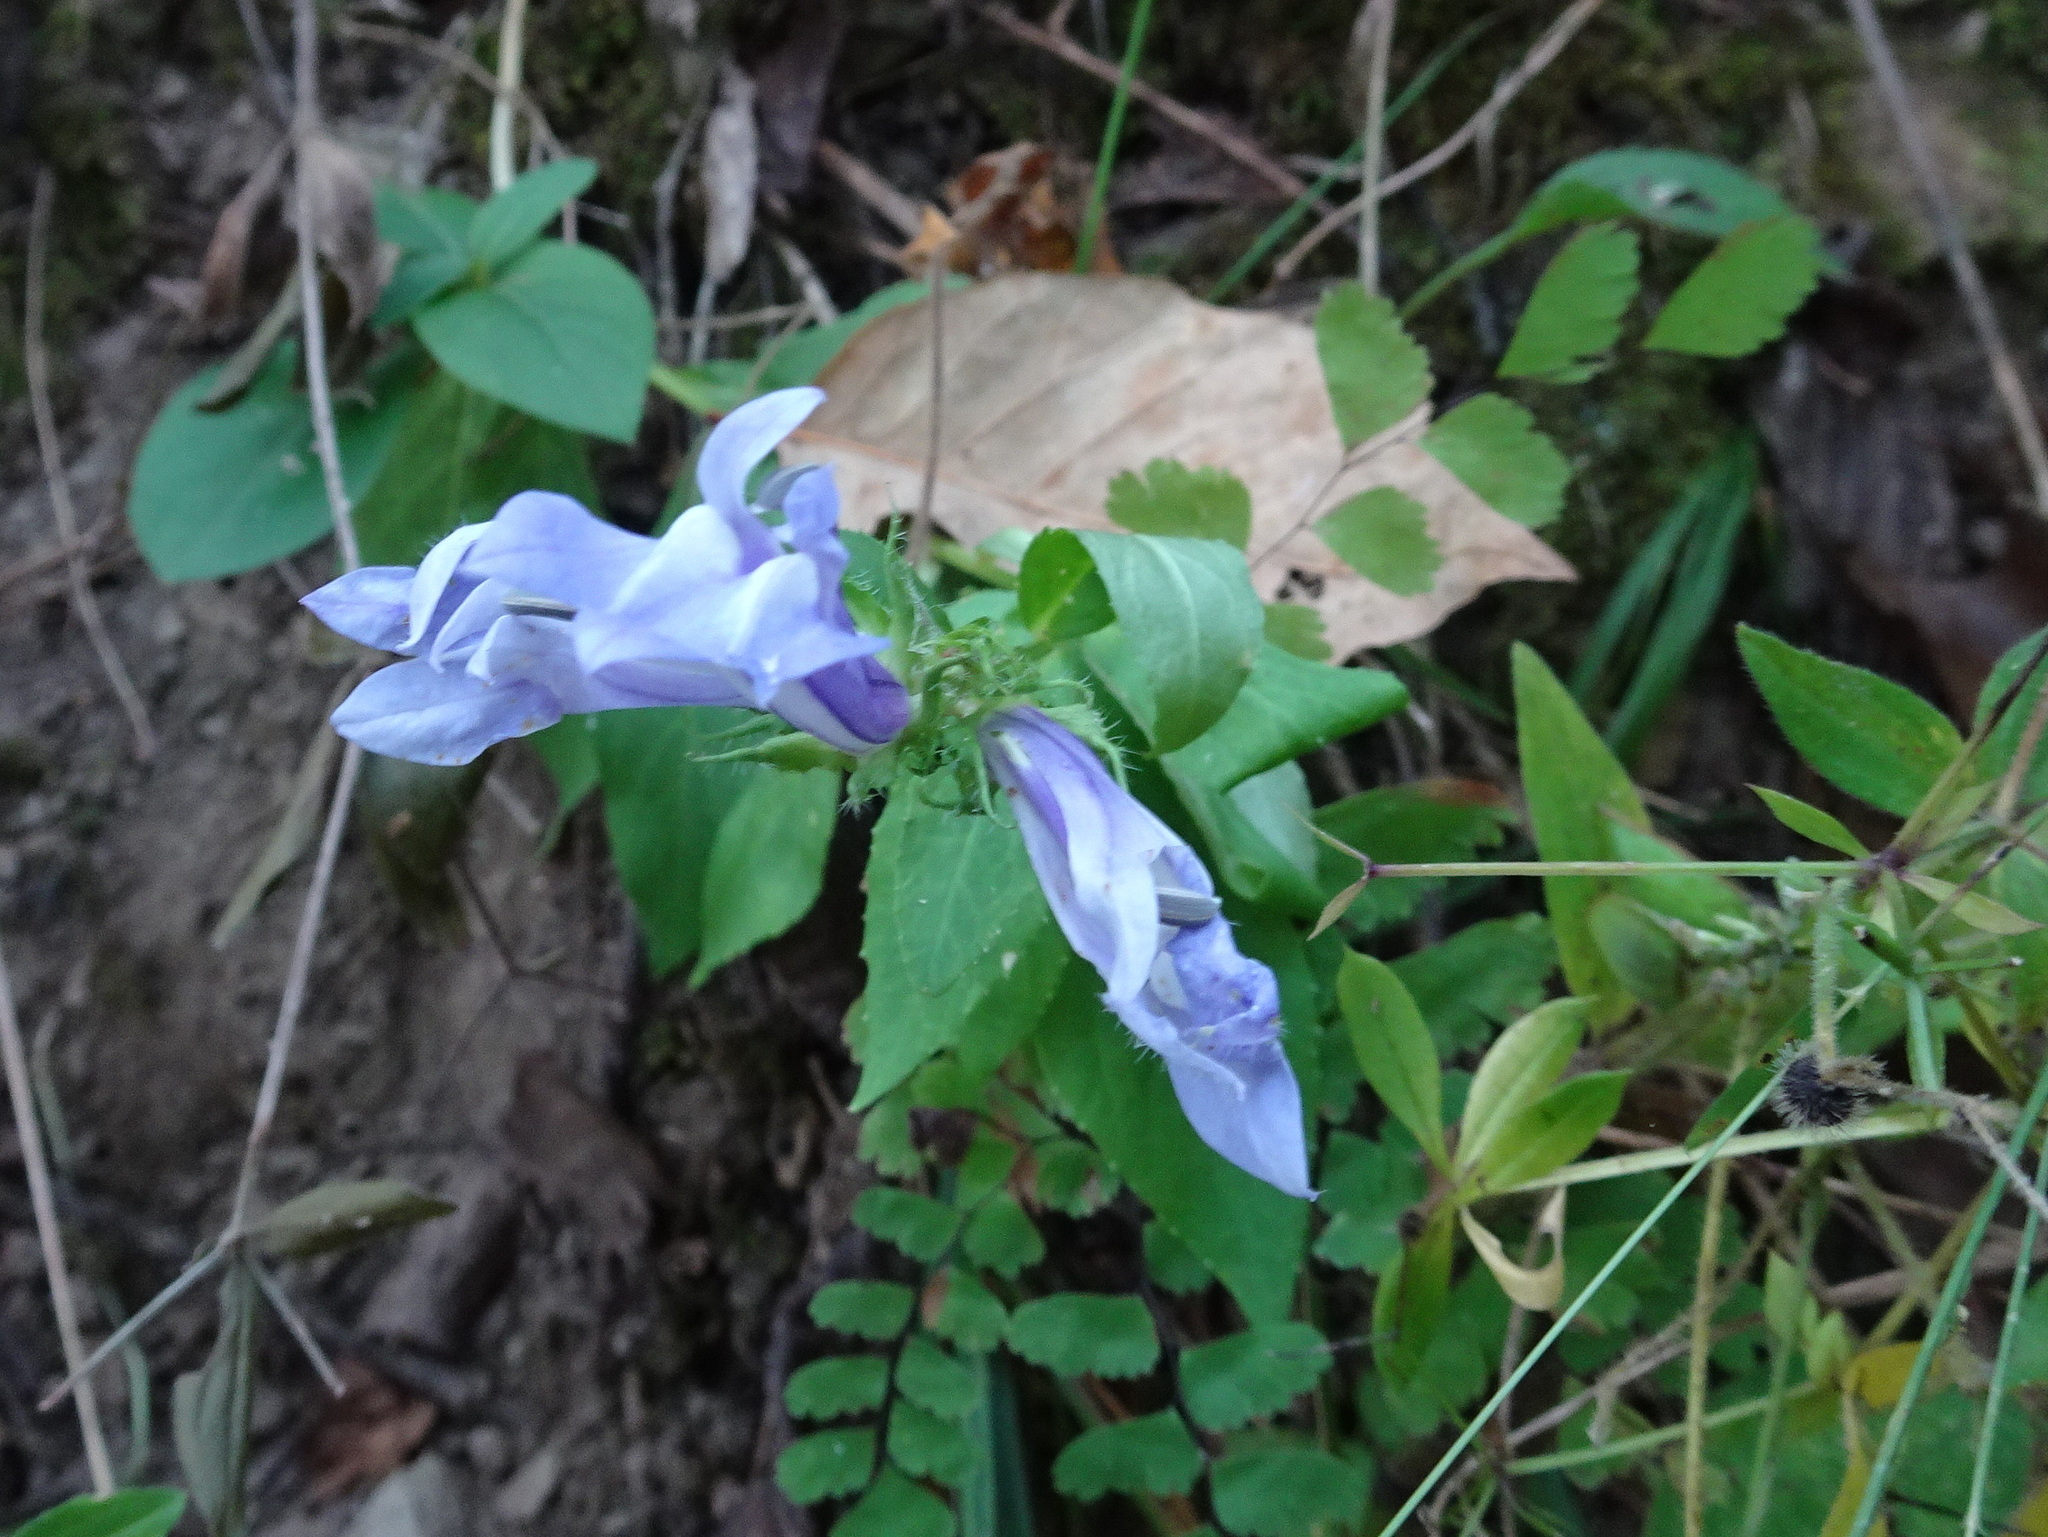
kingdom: Plantae
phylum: Tracheophyta
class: Magnoliopsida
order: Asterales
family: Campanulaceae
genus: Lobelia
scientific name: Lobelia siphilitica
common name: Great lobelia
